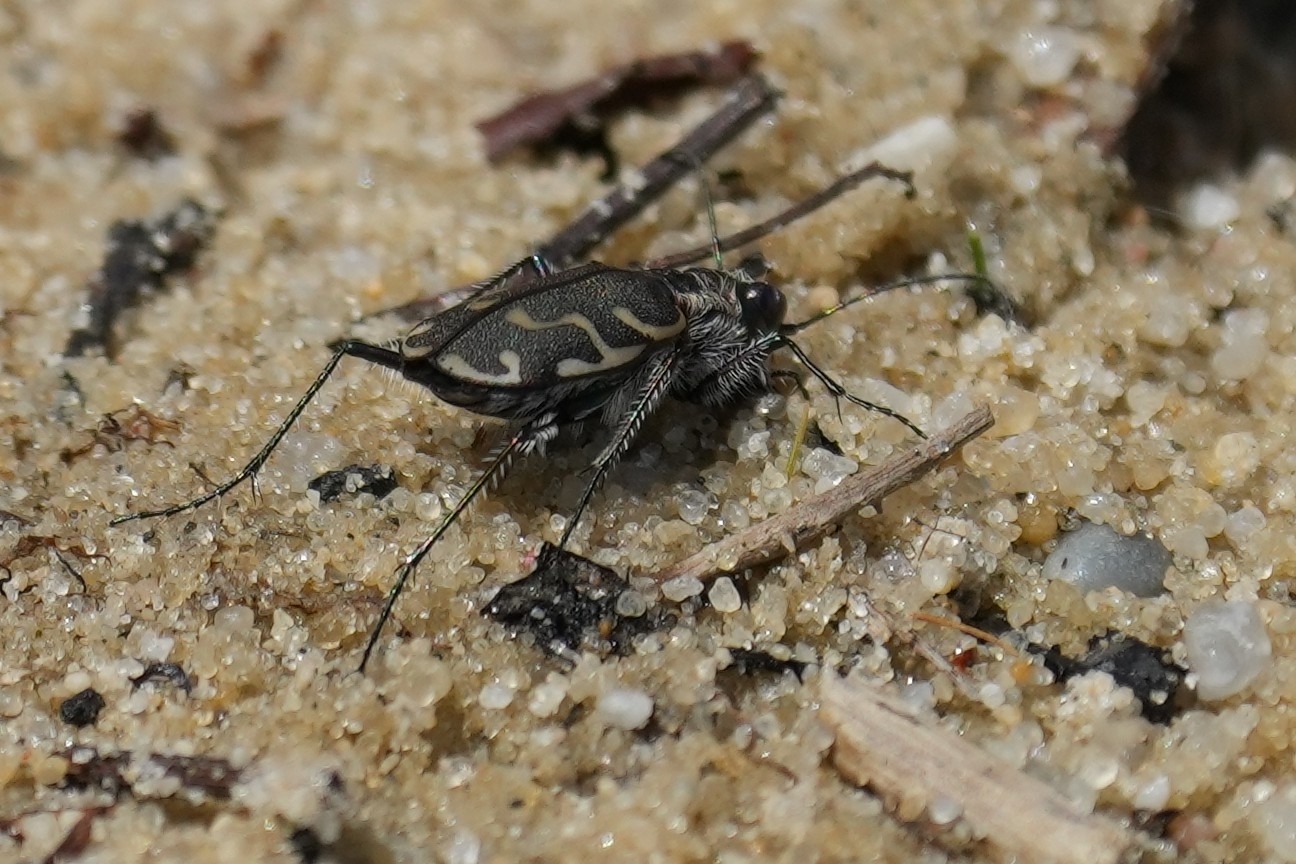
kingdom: Animalia
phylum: Arthropoda
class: Insecta
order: Coleoptera
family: Carabidae
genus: Cicindela
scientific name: Cicindela repanda
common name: Bronzed tiger beetle
